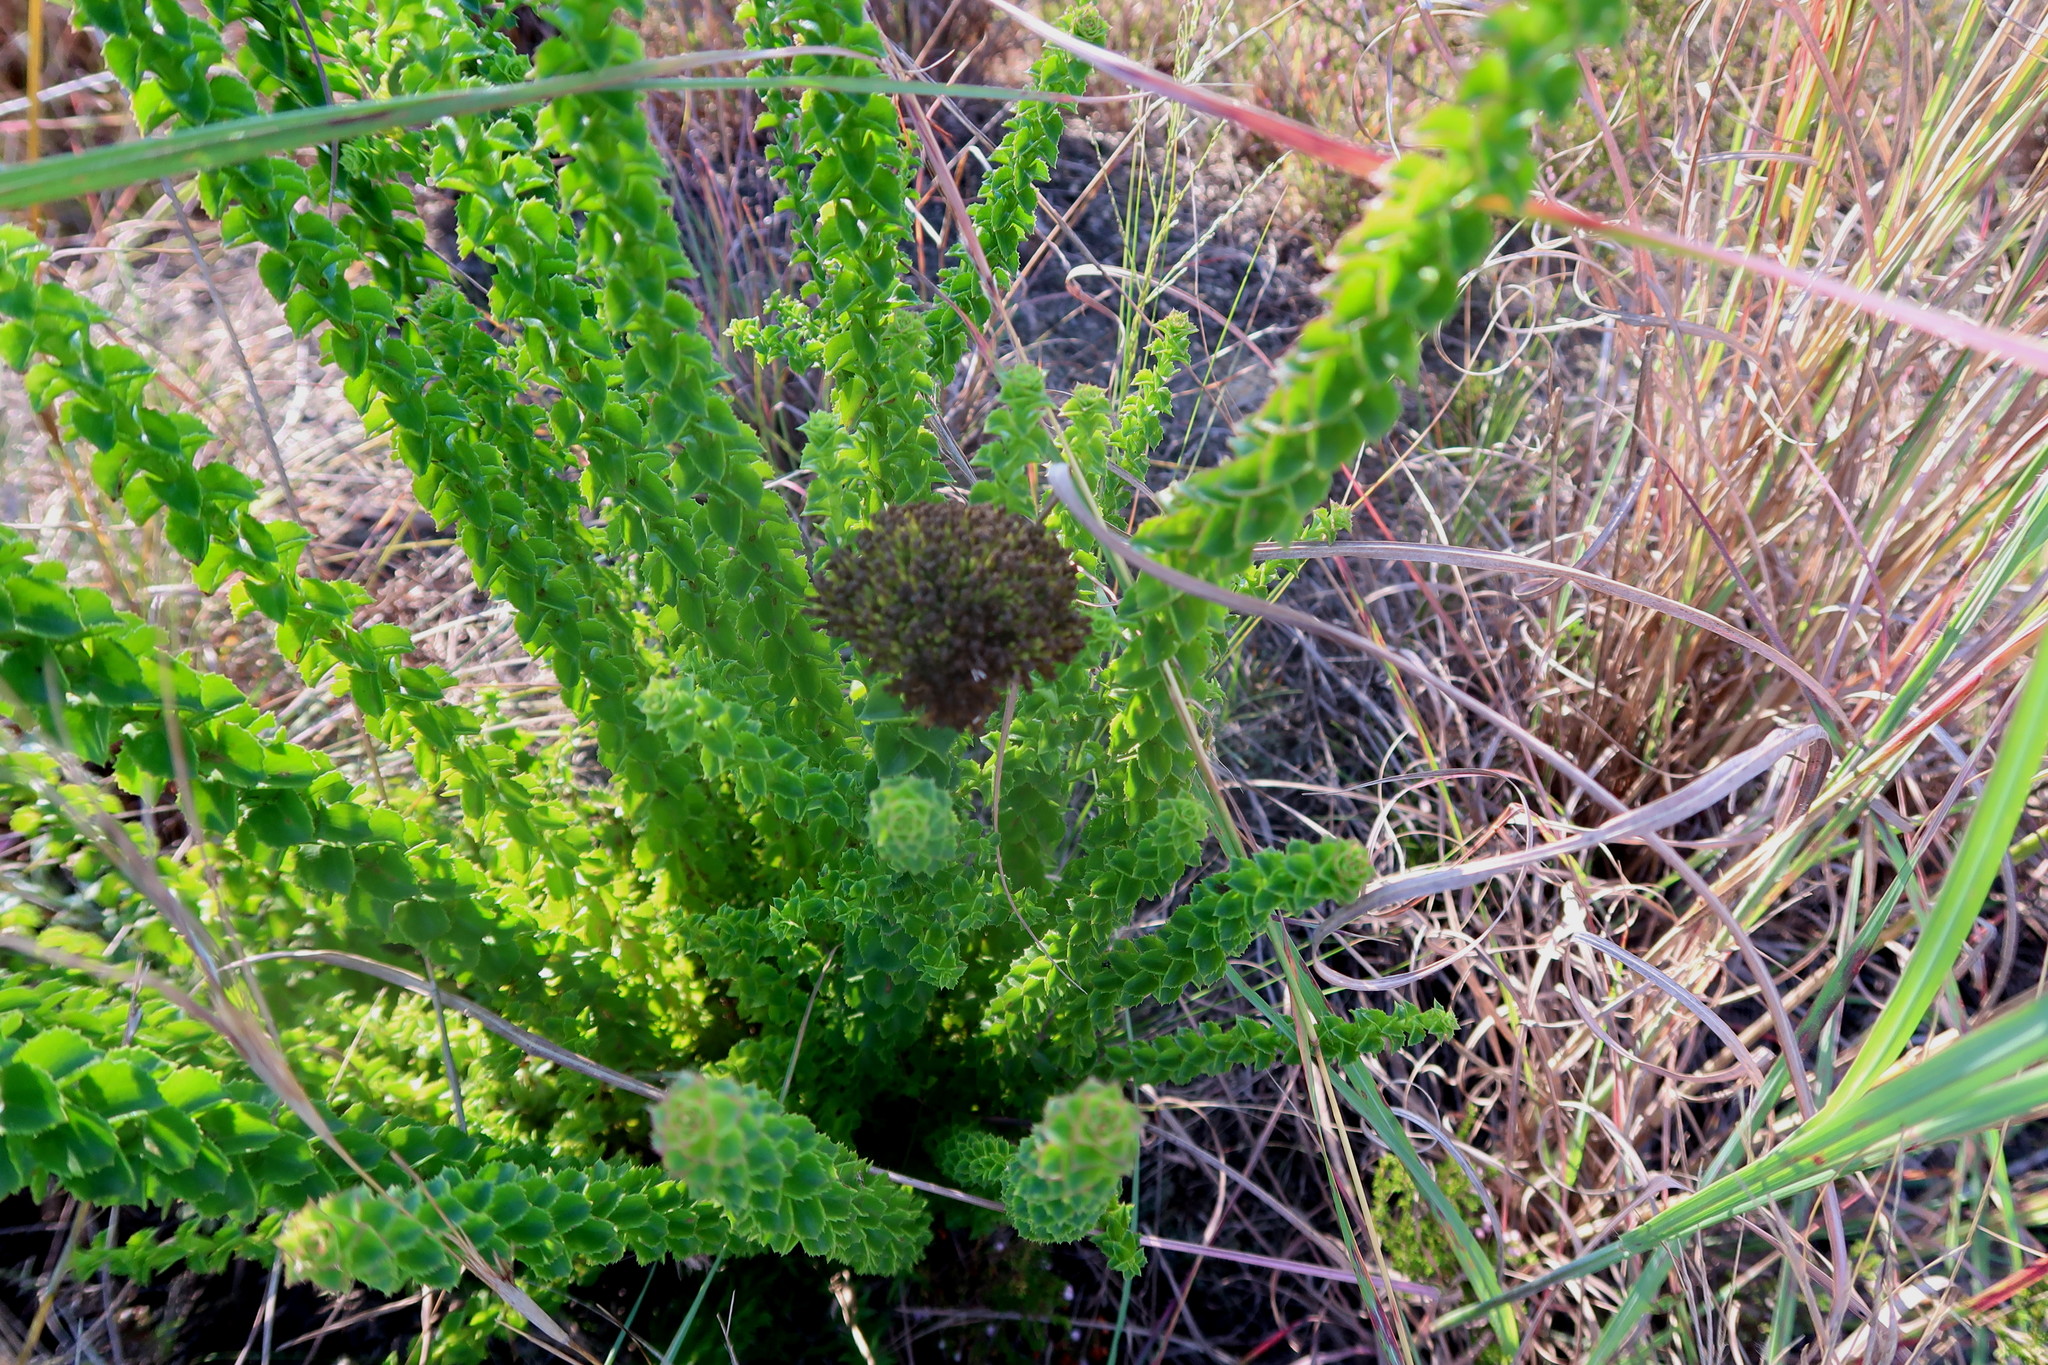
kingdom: Plantae
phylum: Tracheophyta
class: Magnoliopsida
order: Asterales
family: Asteraceae
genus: Athanasia
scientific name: Athanasia dentata
